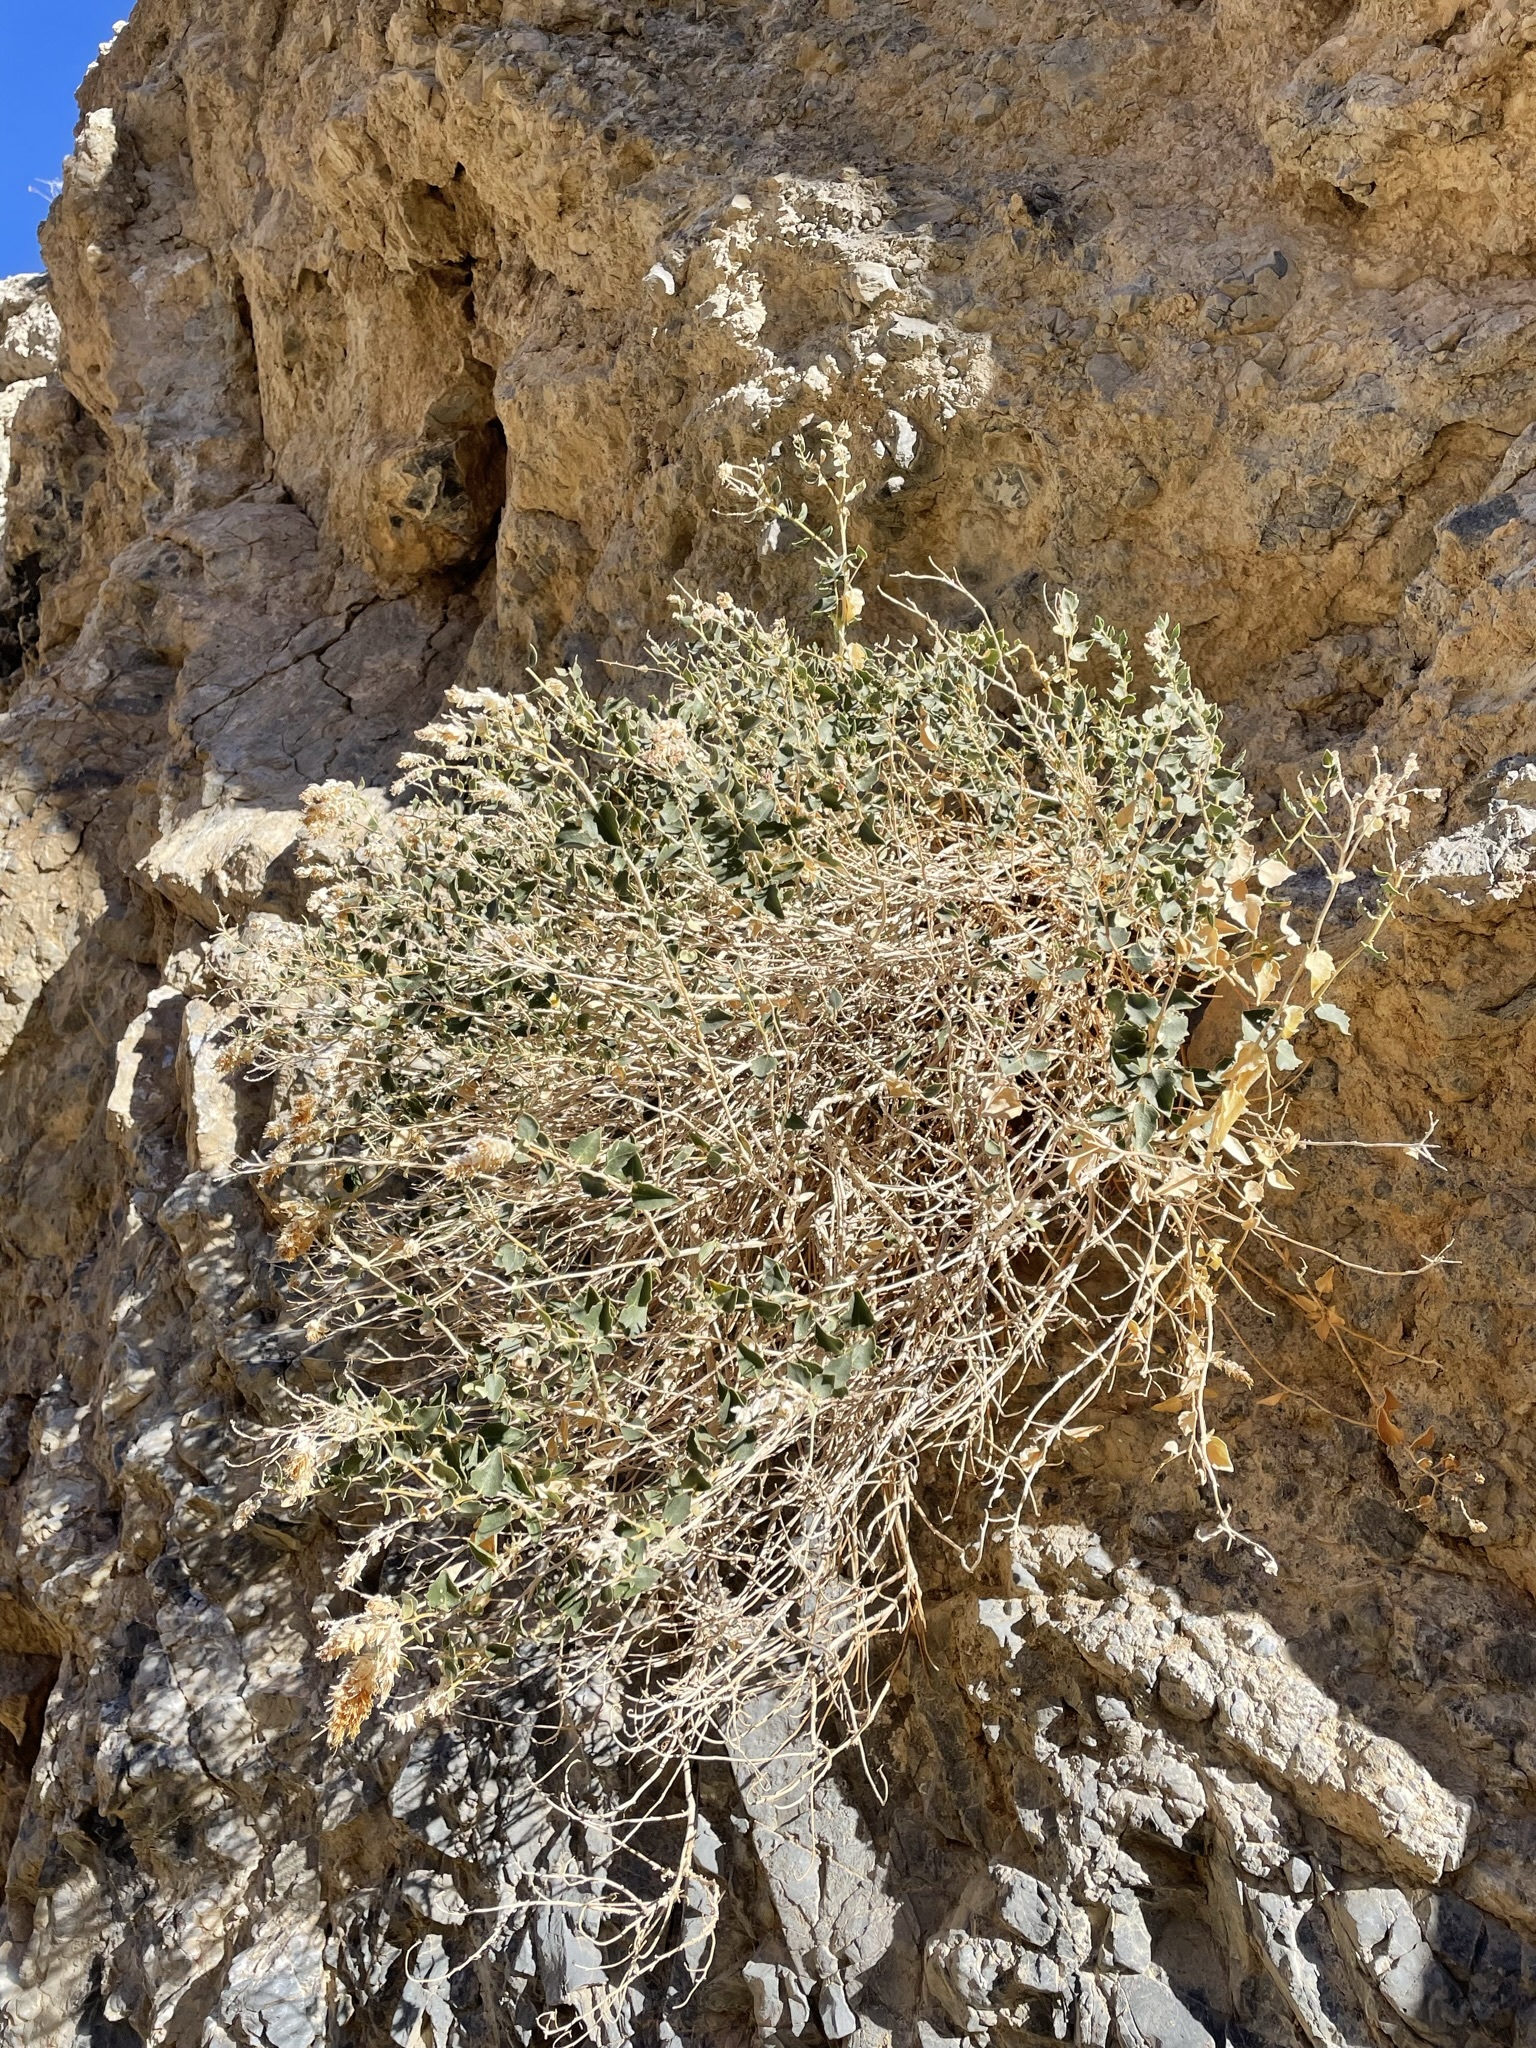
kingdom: Plantae
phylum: Tracheophyta
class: Magnoliopsida
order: Cornales
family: Loasaceae
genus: Petalonyx
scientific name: Petalonyx nitidus
